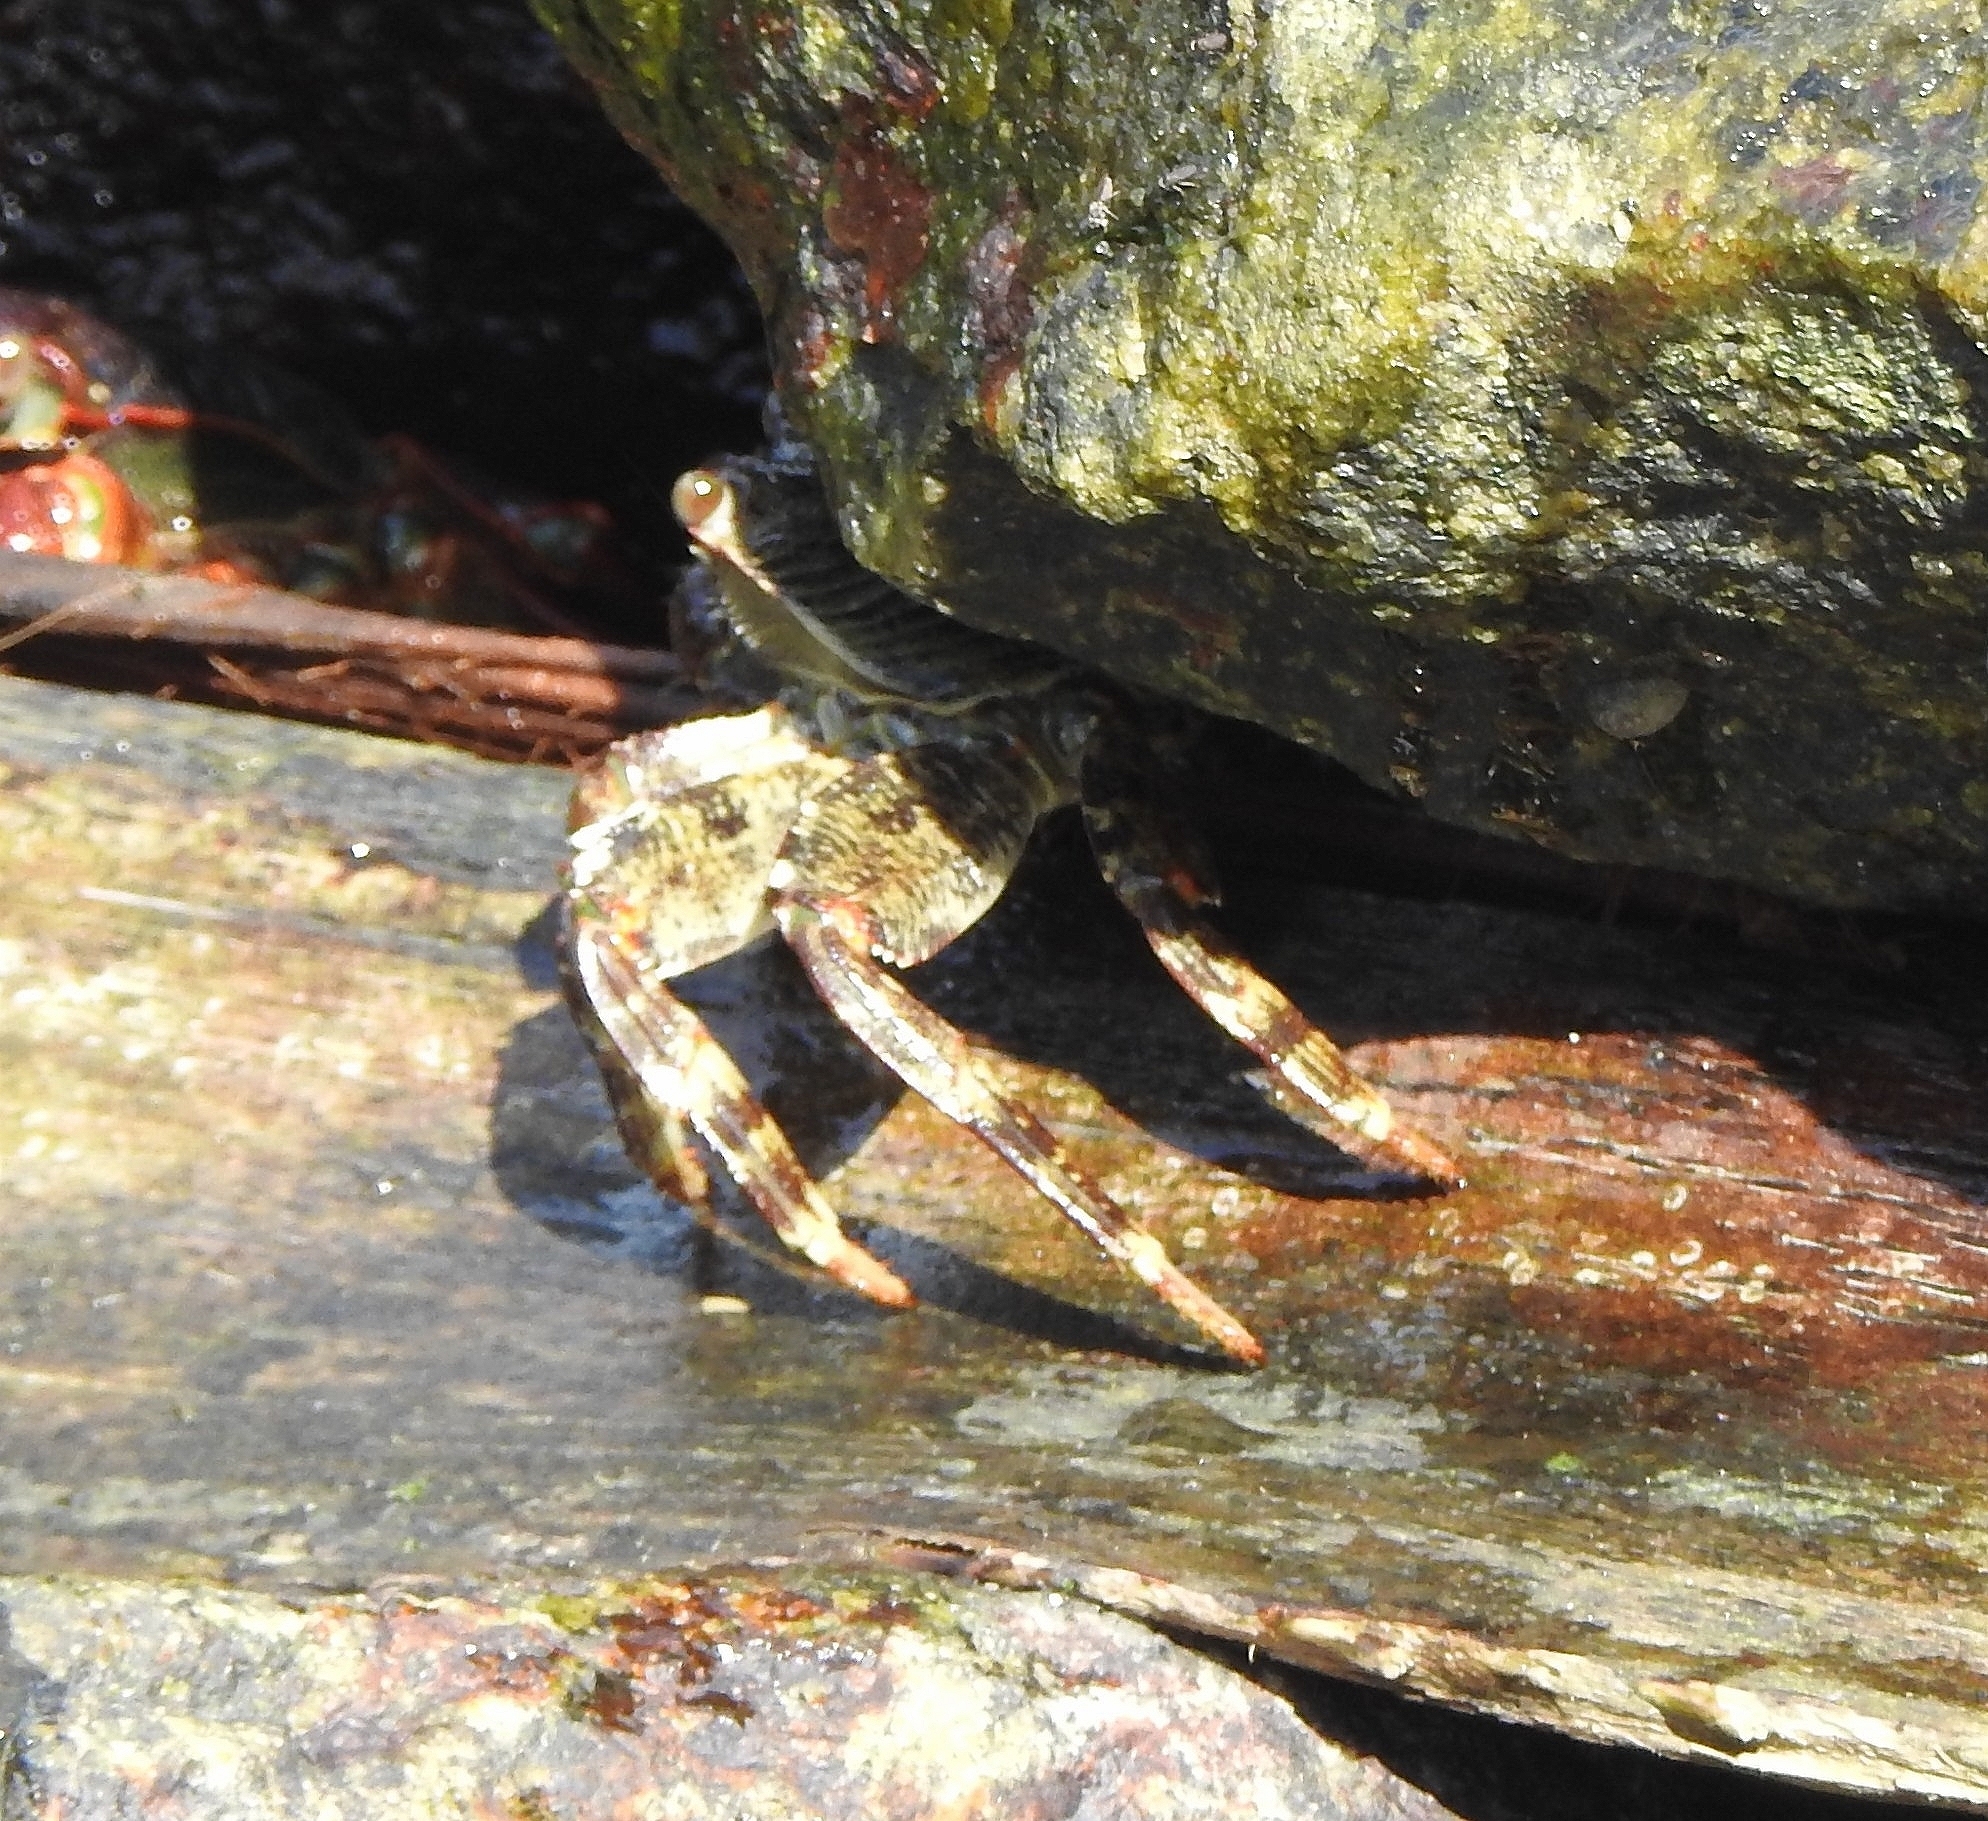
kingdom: Animalia
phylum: Arthropoda
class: Malacostraca
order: Decapoda
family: Grapsidae
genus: Grapsus
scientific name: Grapsus albolineatus
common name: Mottled lightfoot crab
